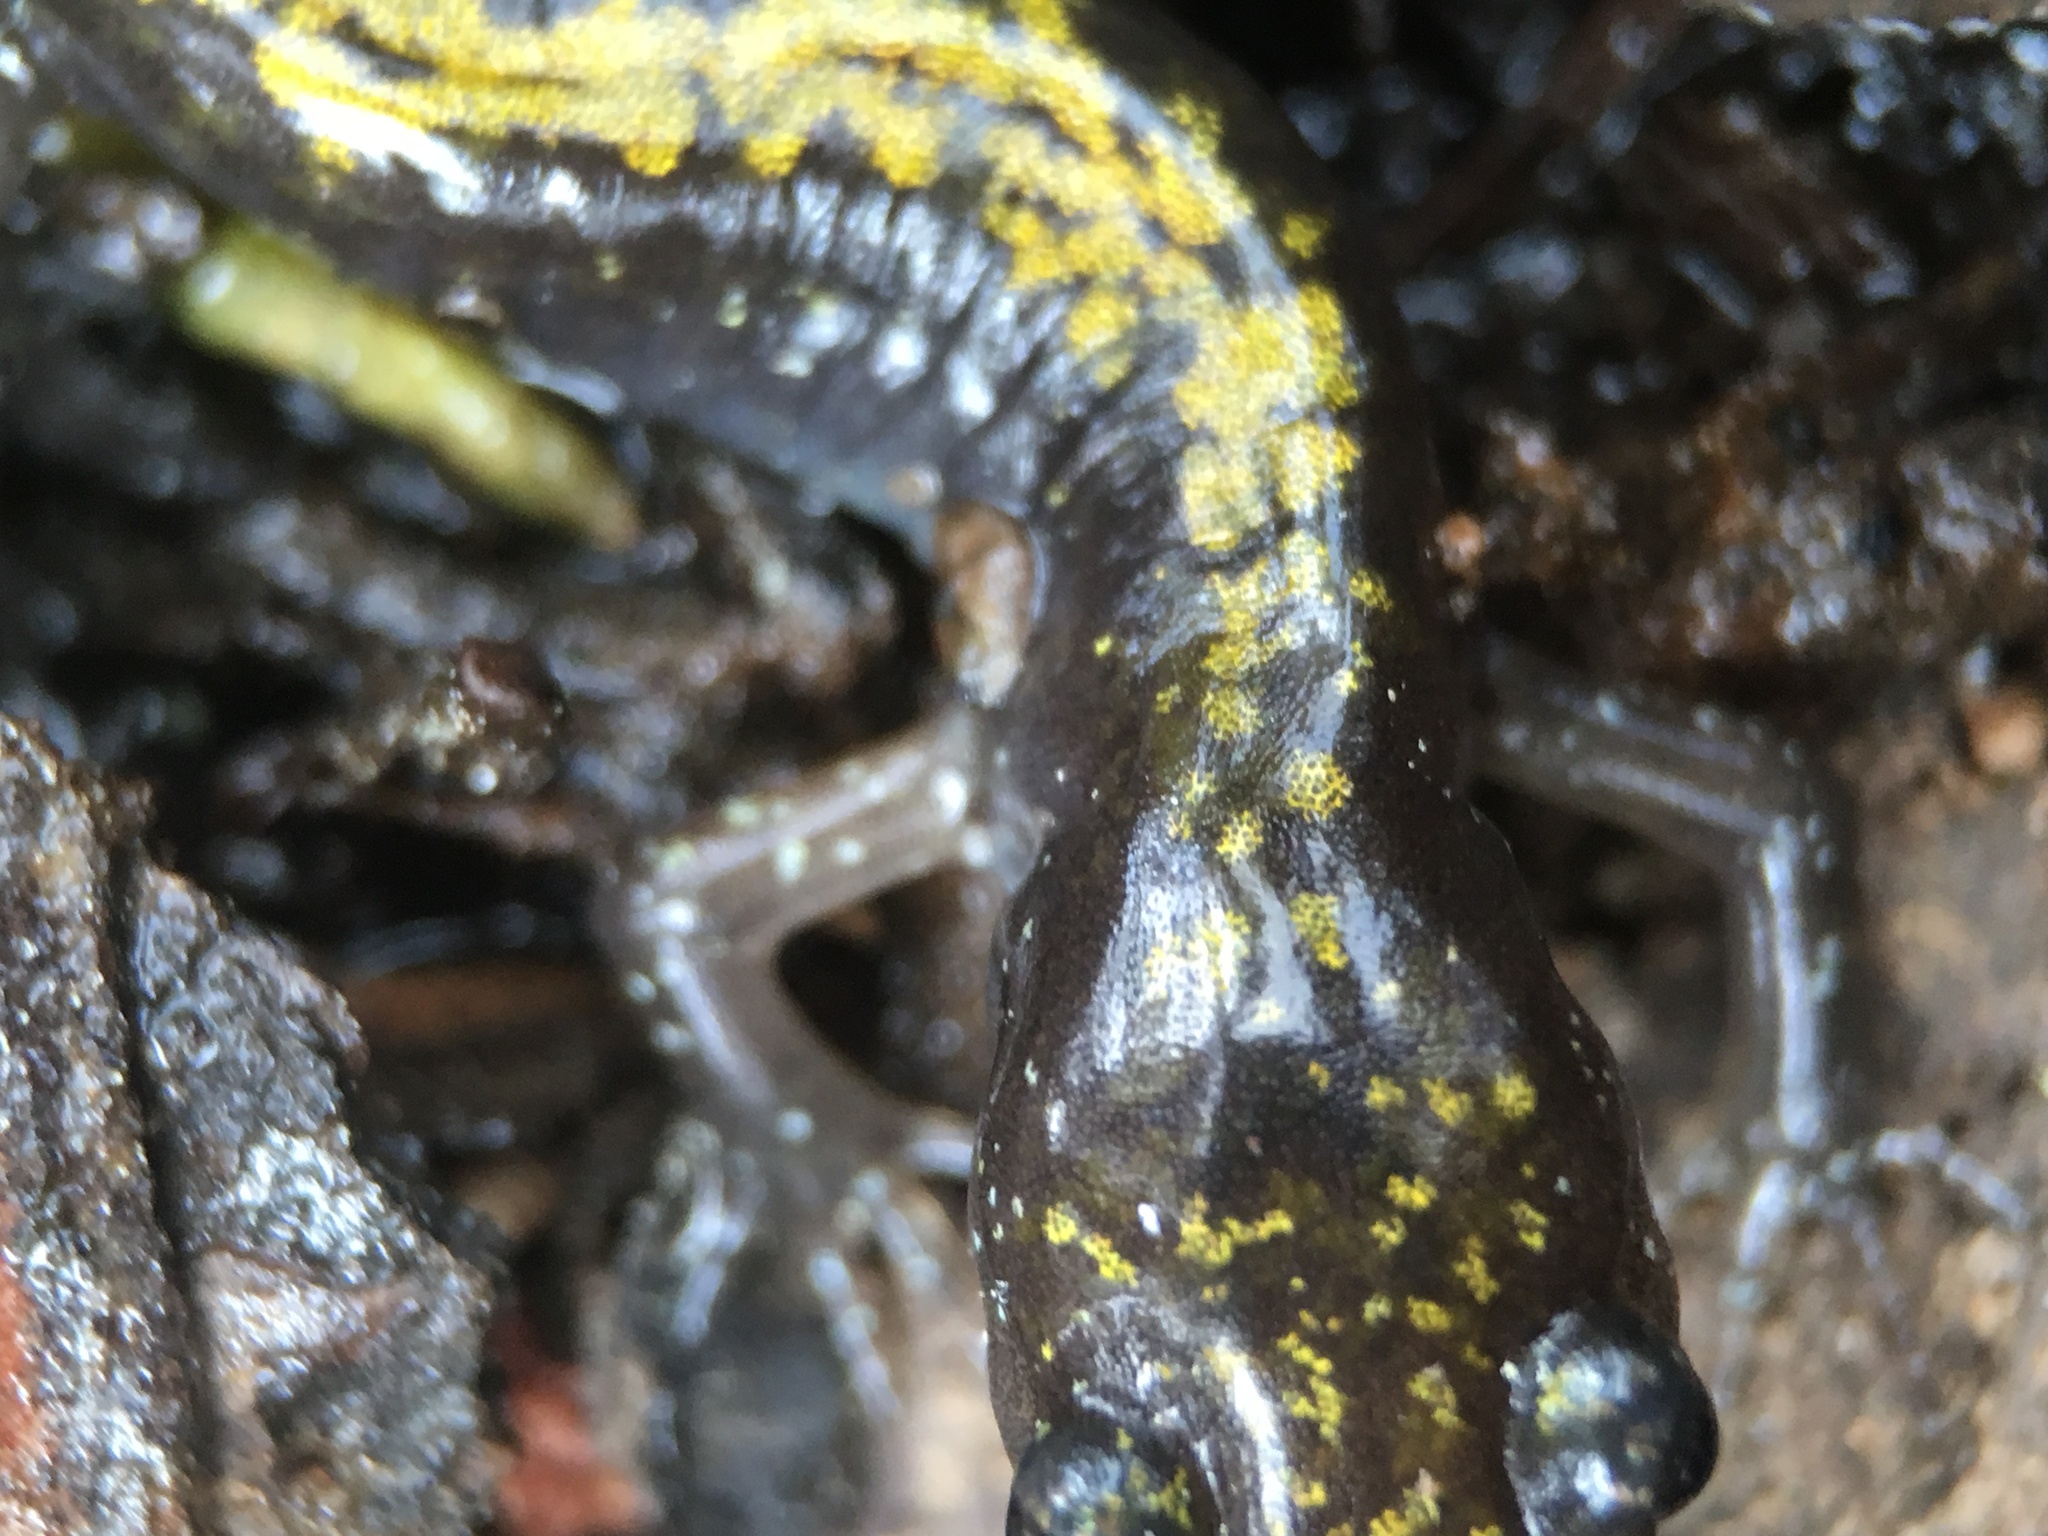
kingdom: Animalia
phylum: Chordata
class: Amphibia
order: Caudata
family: Ambystomatidae
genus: Ambystoma
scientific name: Ambystoma macrodactylum
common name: Long-toed salamander
